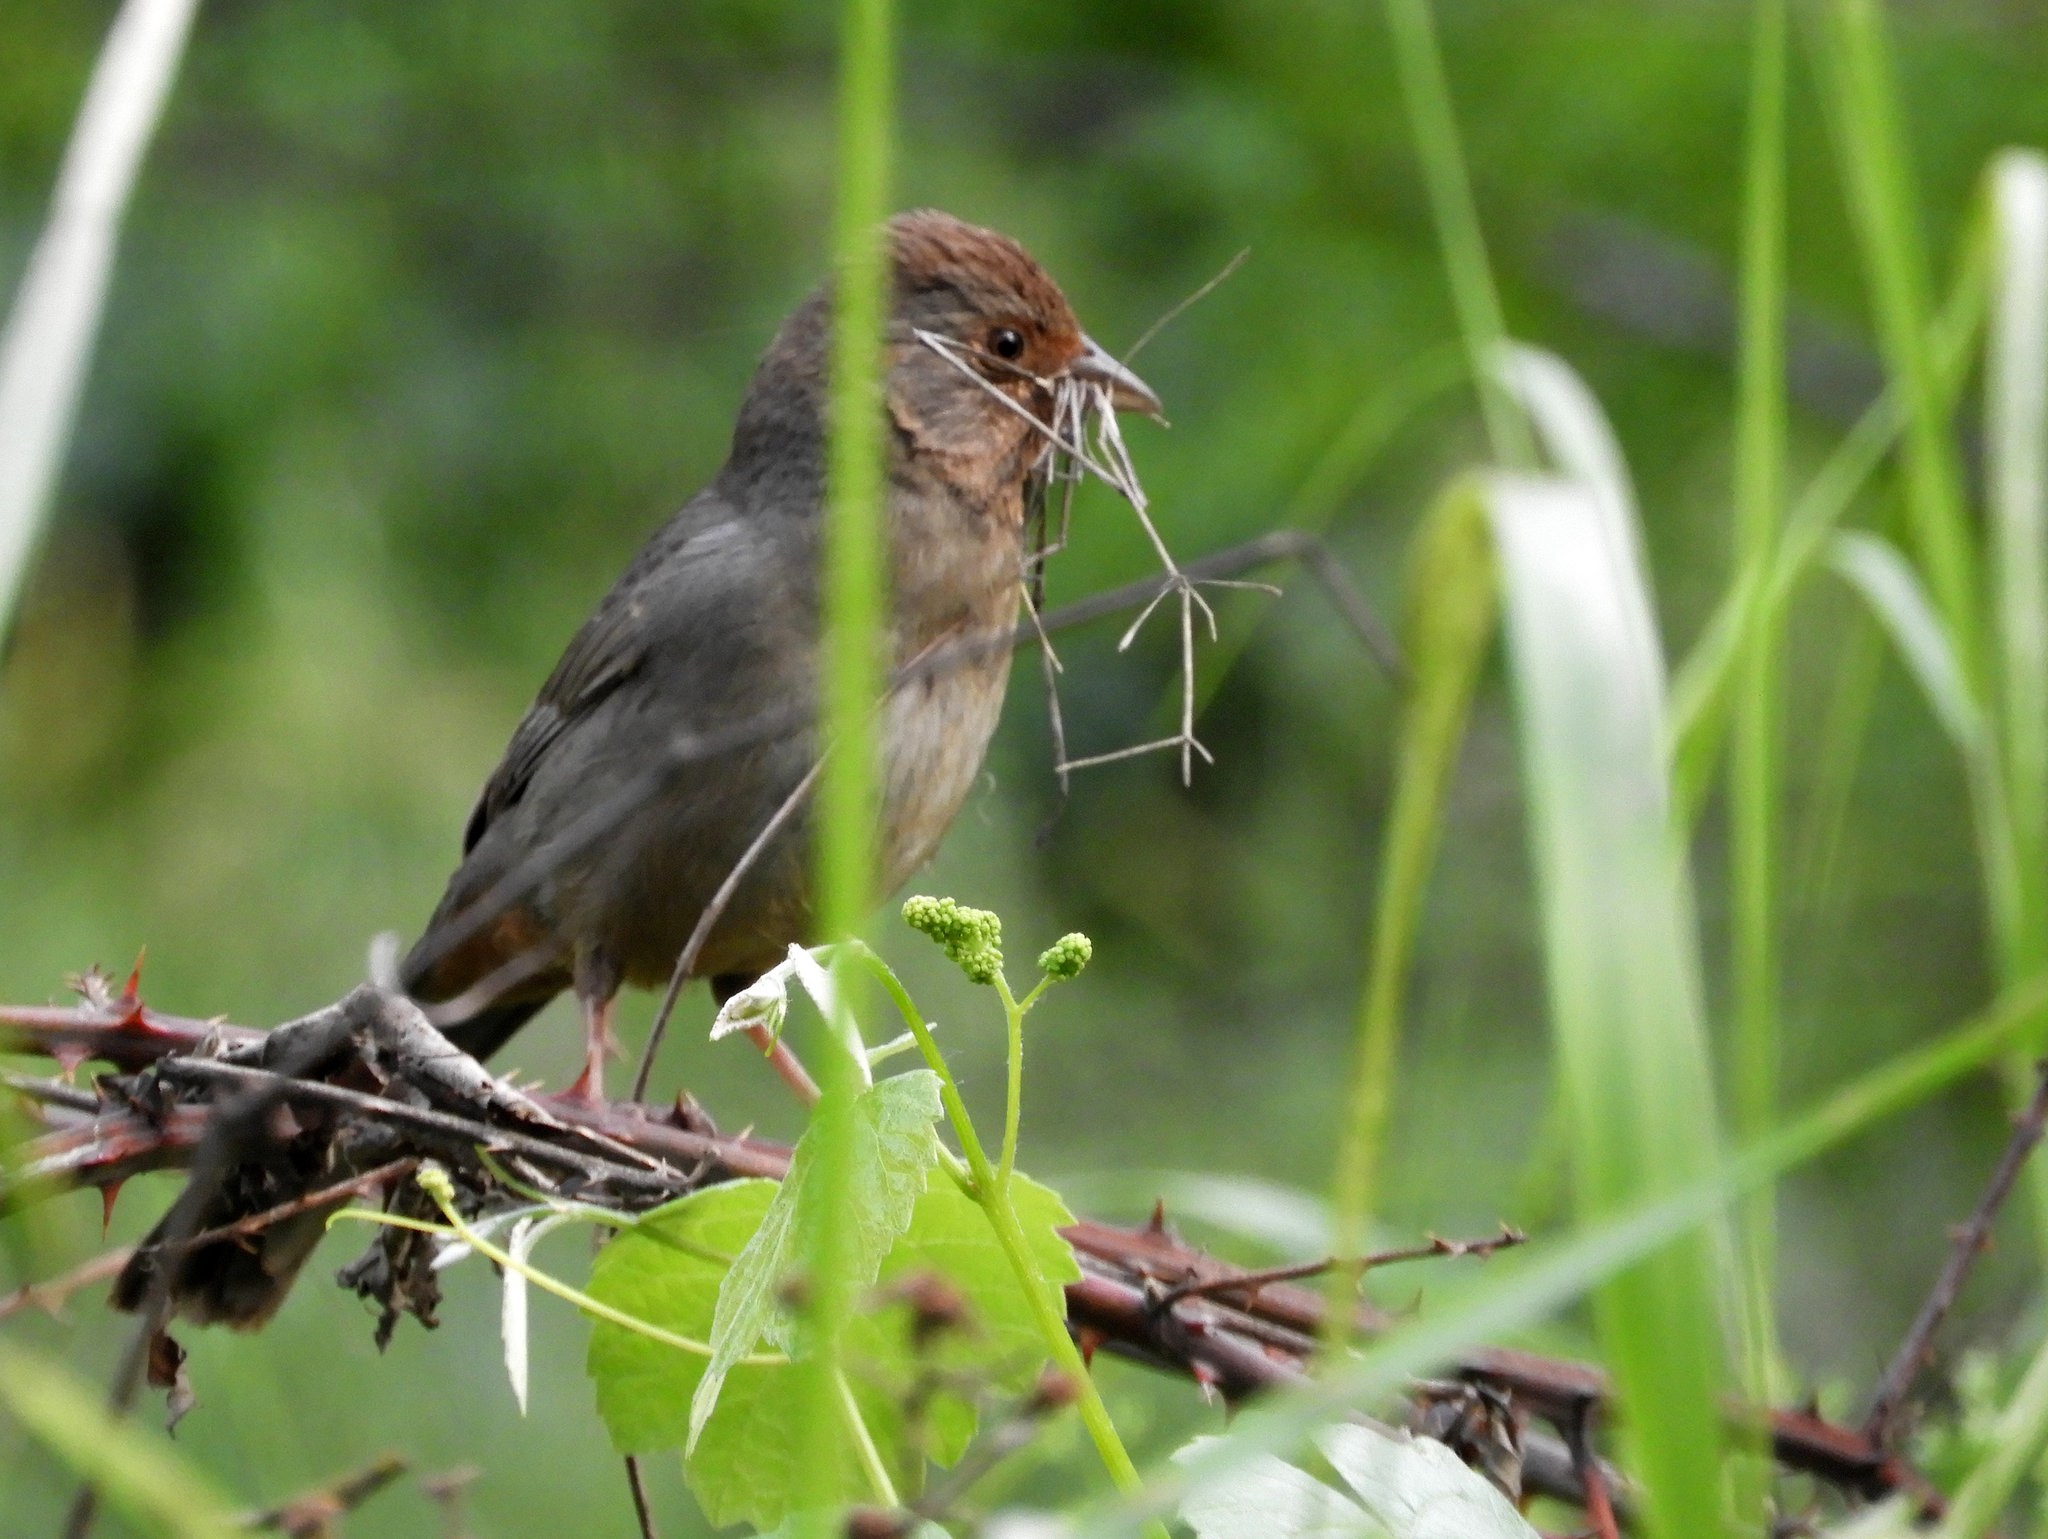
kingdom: Animalia
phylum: Chordata
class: Aves
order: Passeriformes
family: Passerellidae
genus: Melozone
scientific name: Melozone crissalis
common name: California towhee
